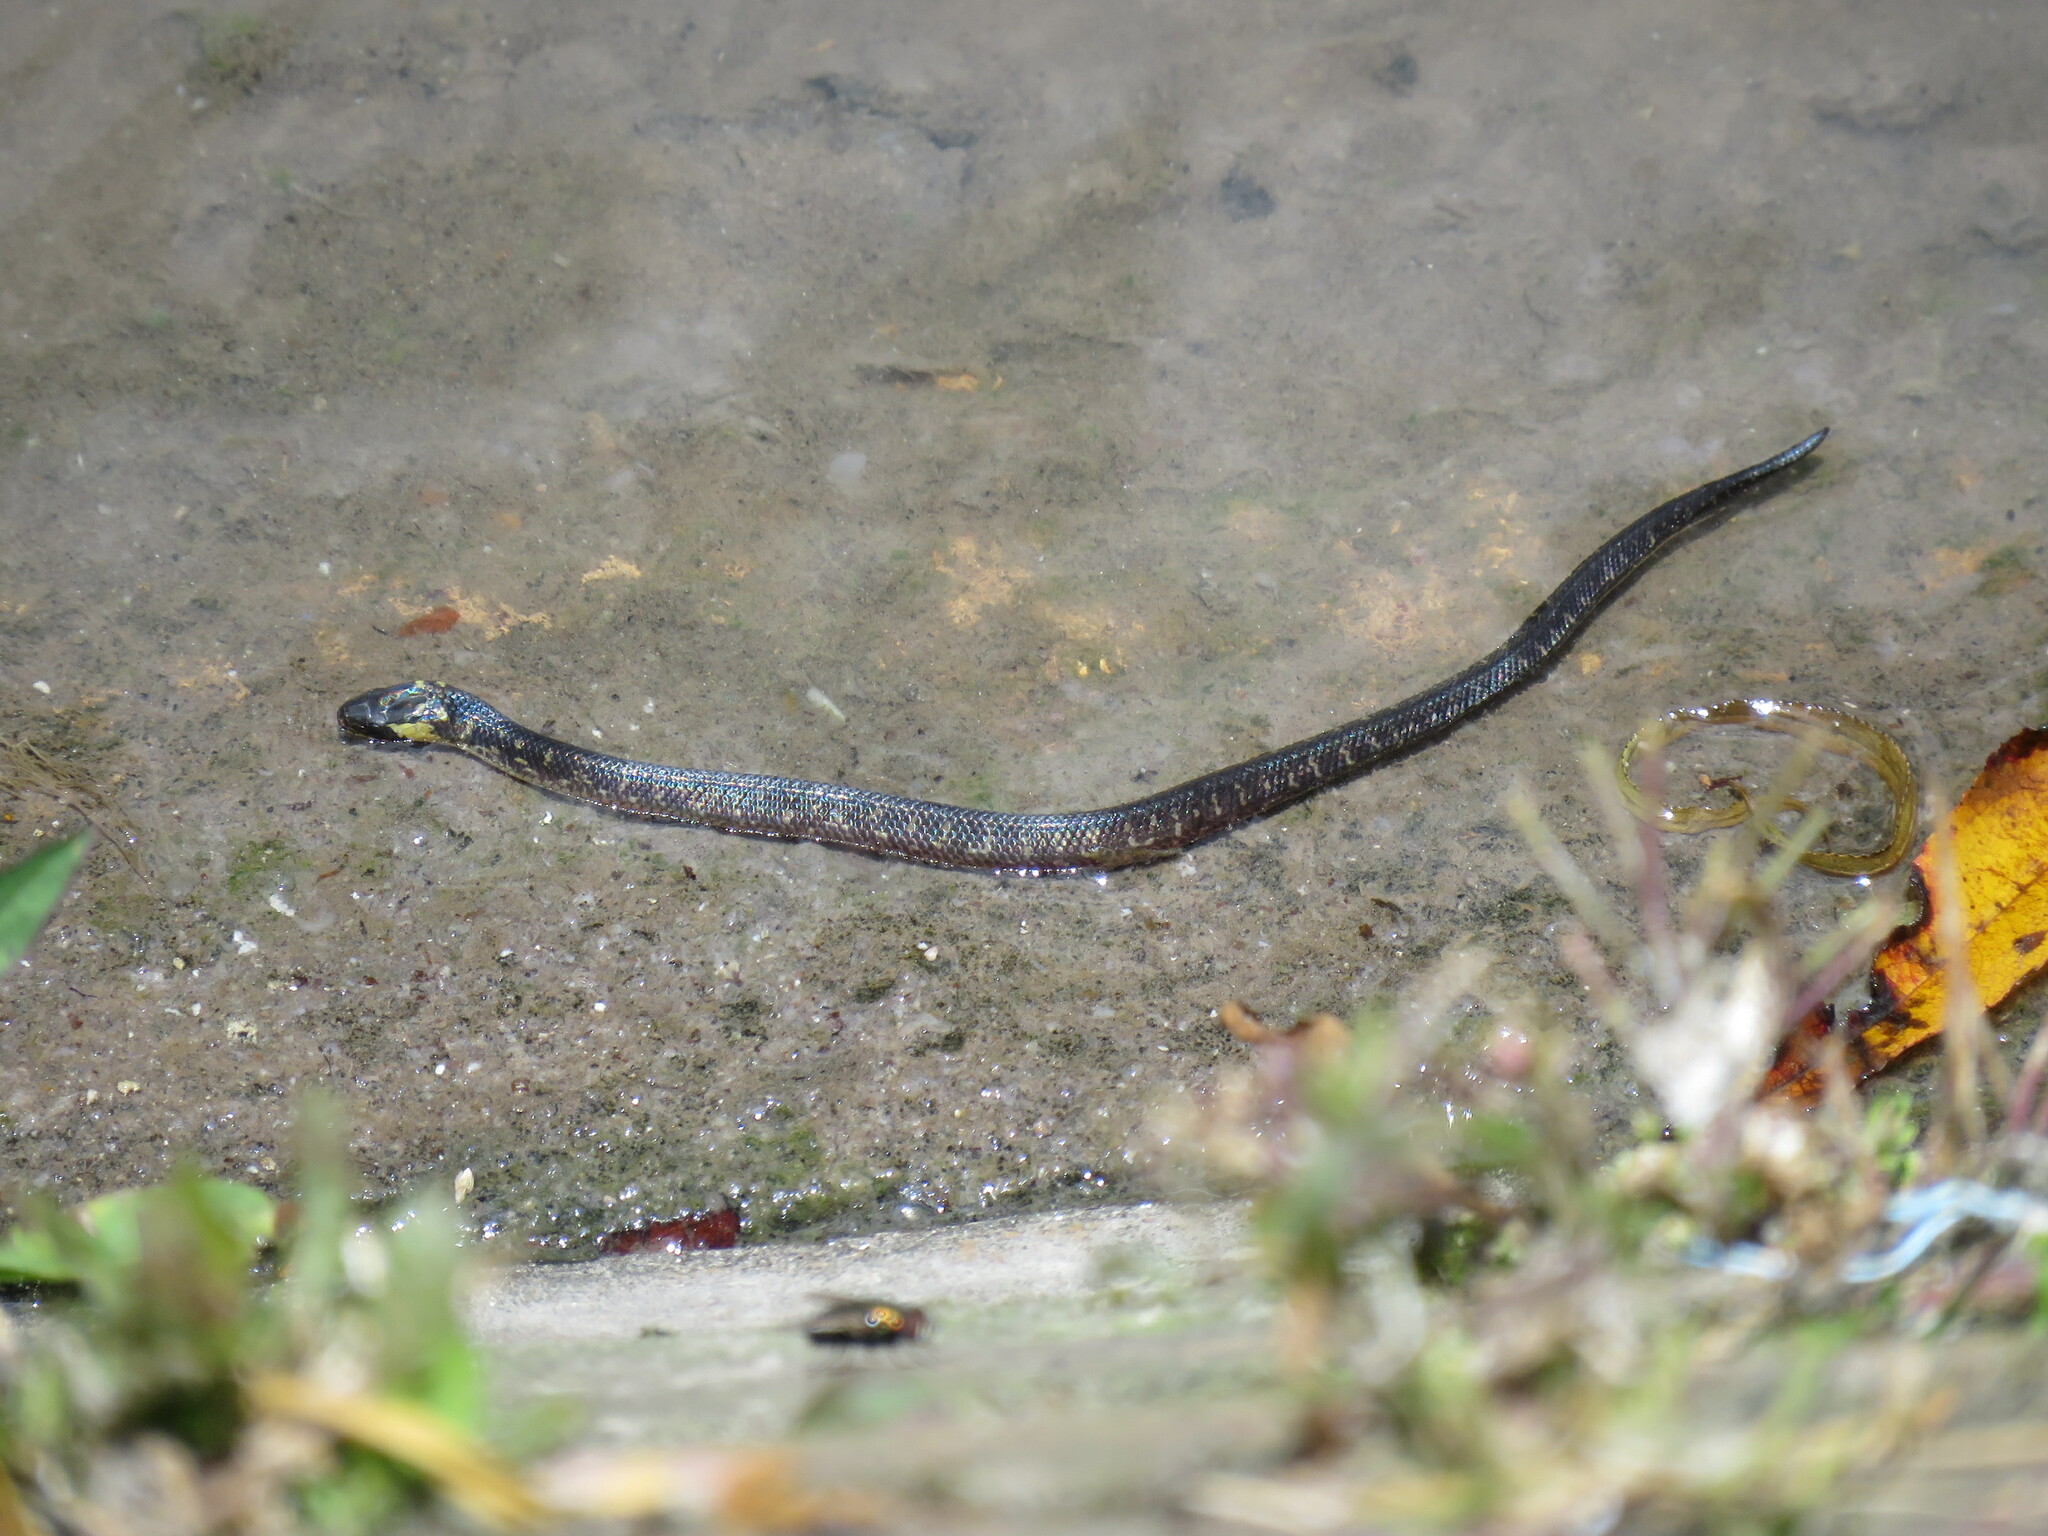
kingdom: Animalia
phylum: Chordata
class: Squamata
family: Colubridae
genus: Atractus
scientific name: Atractus crassicaudatus
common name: Thickhead ground snake
